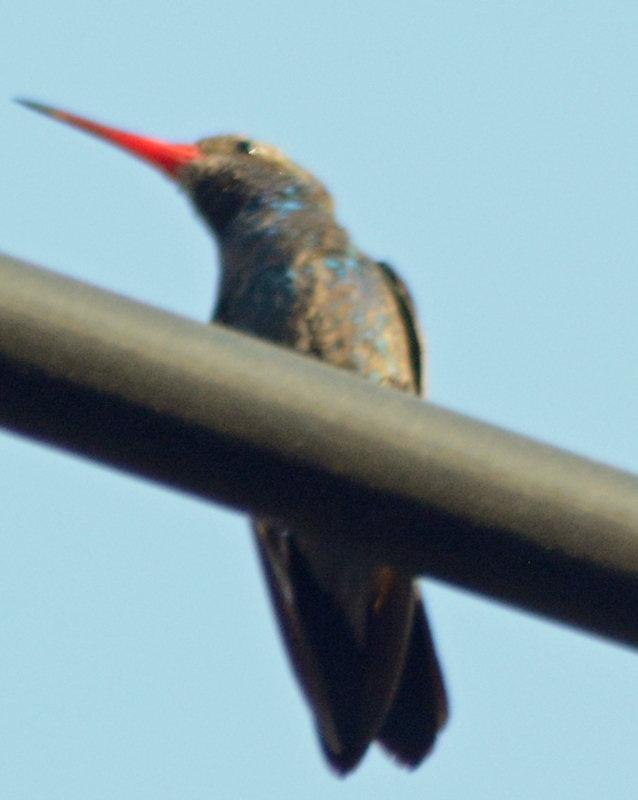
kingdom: Animalia
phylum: Chordata
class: Aves
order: Apodiformes
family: Trochilidae
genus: Cynanthus
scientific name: Cynanthus latirostris
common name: Broad-billed hummingbird
